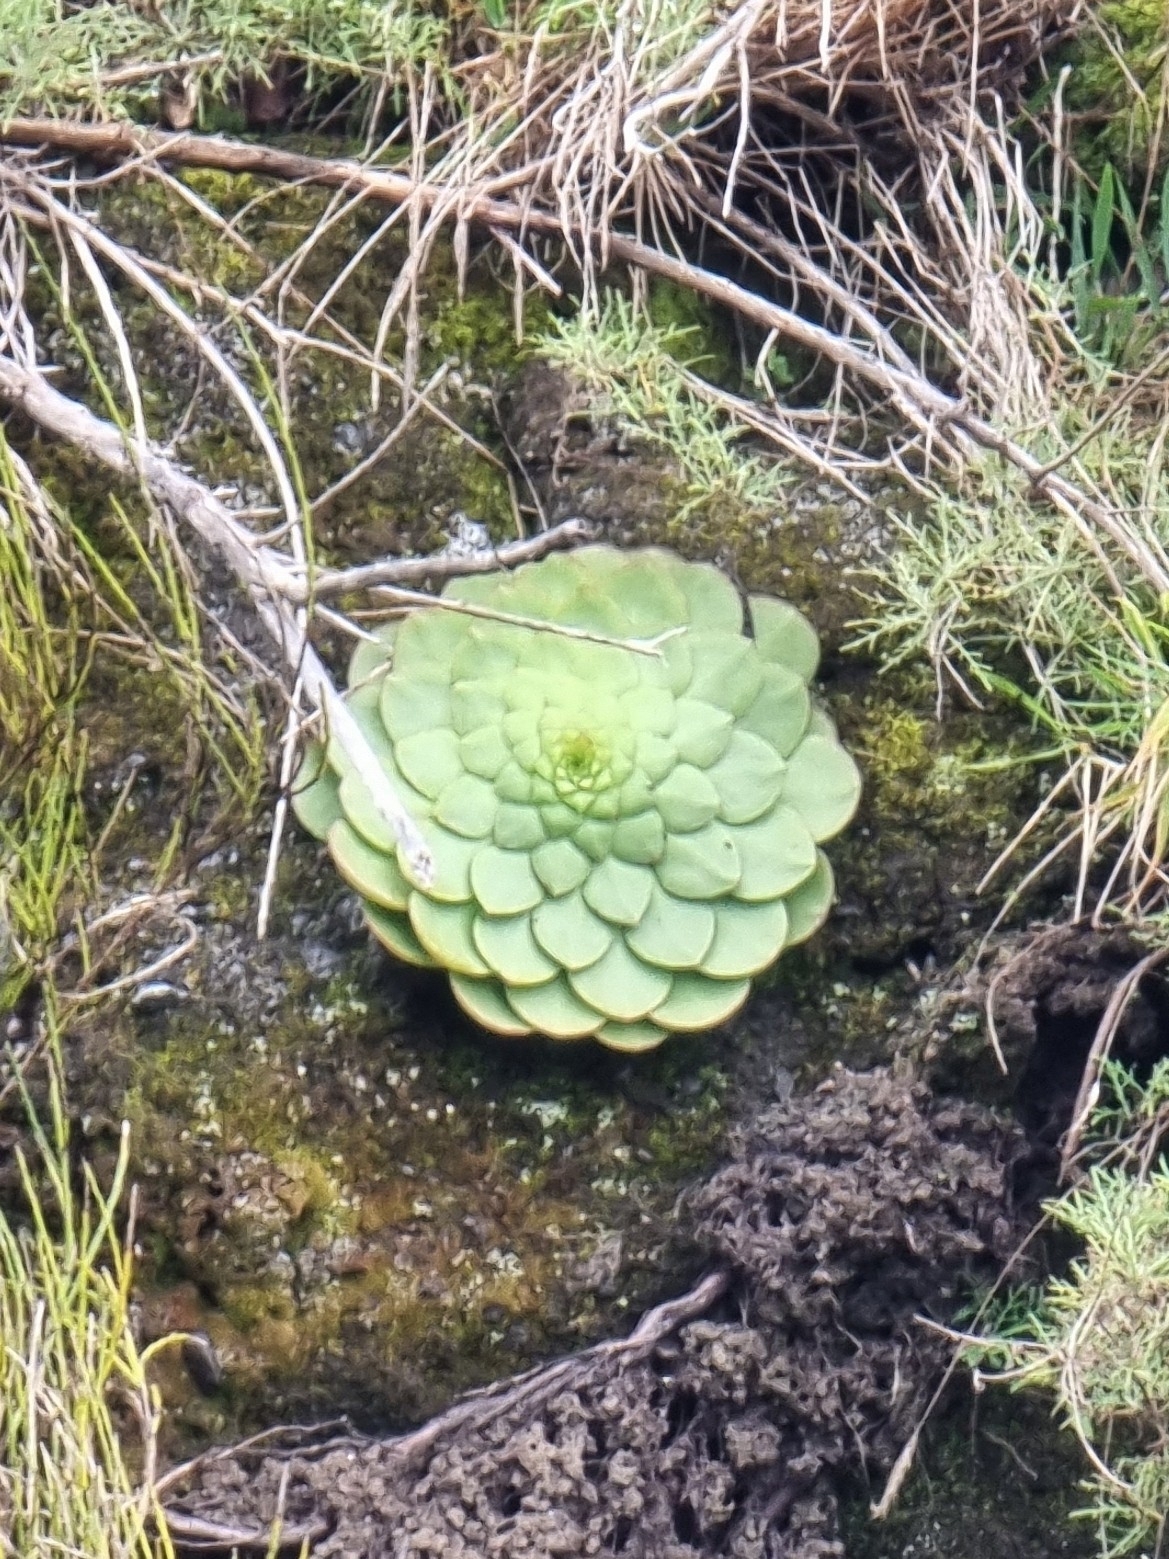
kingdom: Plantae
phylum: Tracheophyta
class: Magnoliopsida
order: Saxifragales
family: Crassulaceae
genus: Aeonium
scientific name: Aeonium glandulosum
